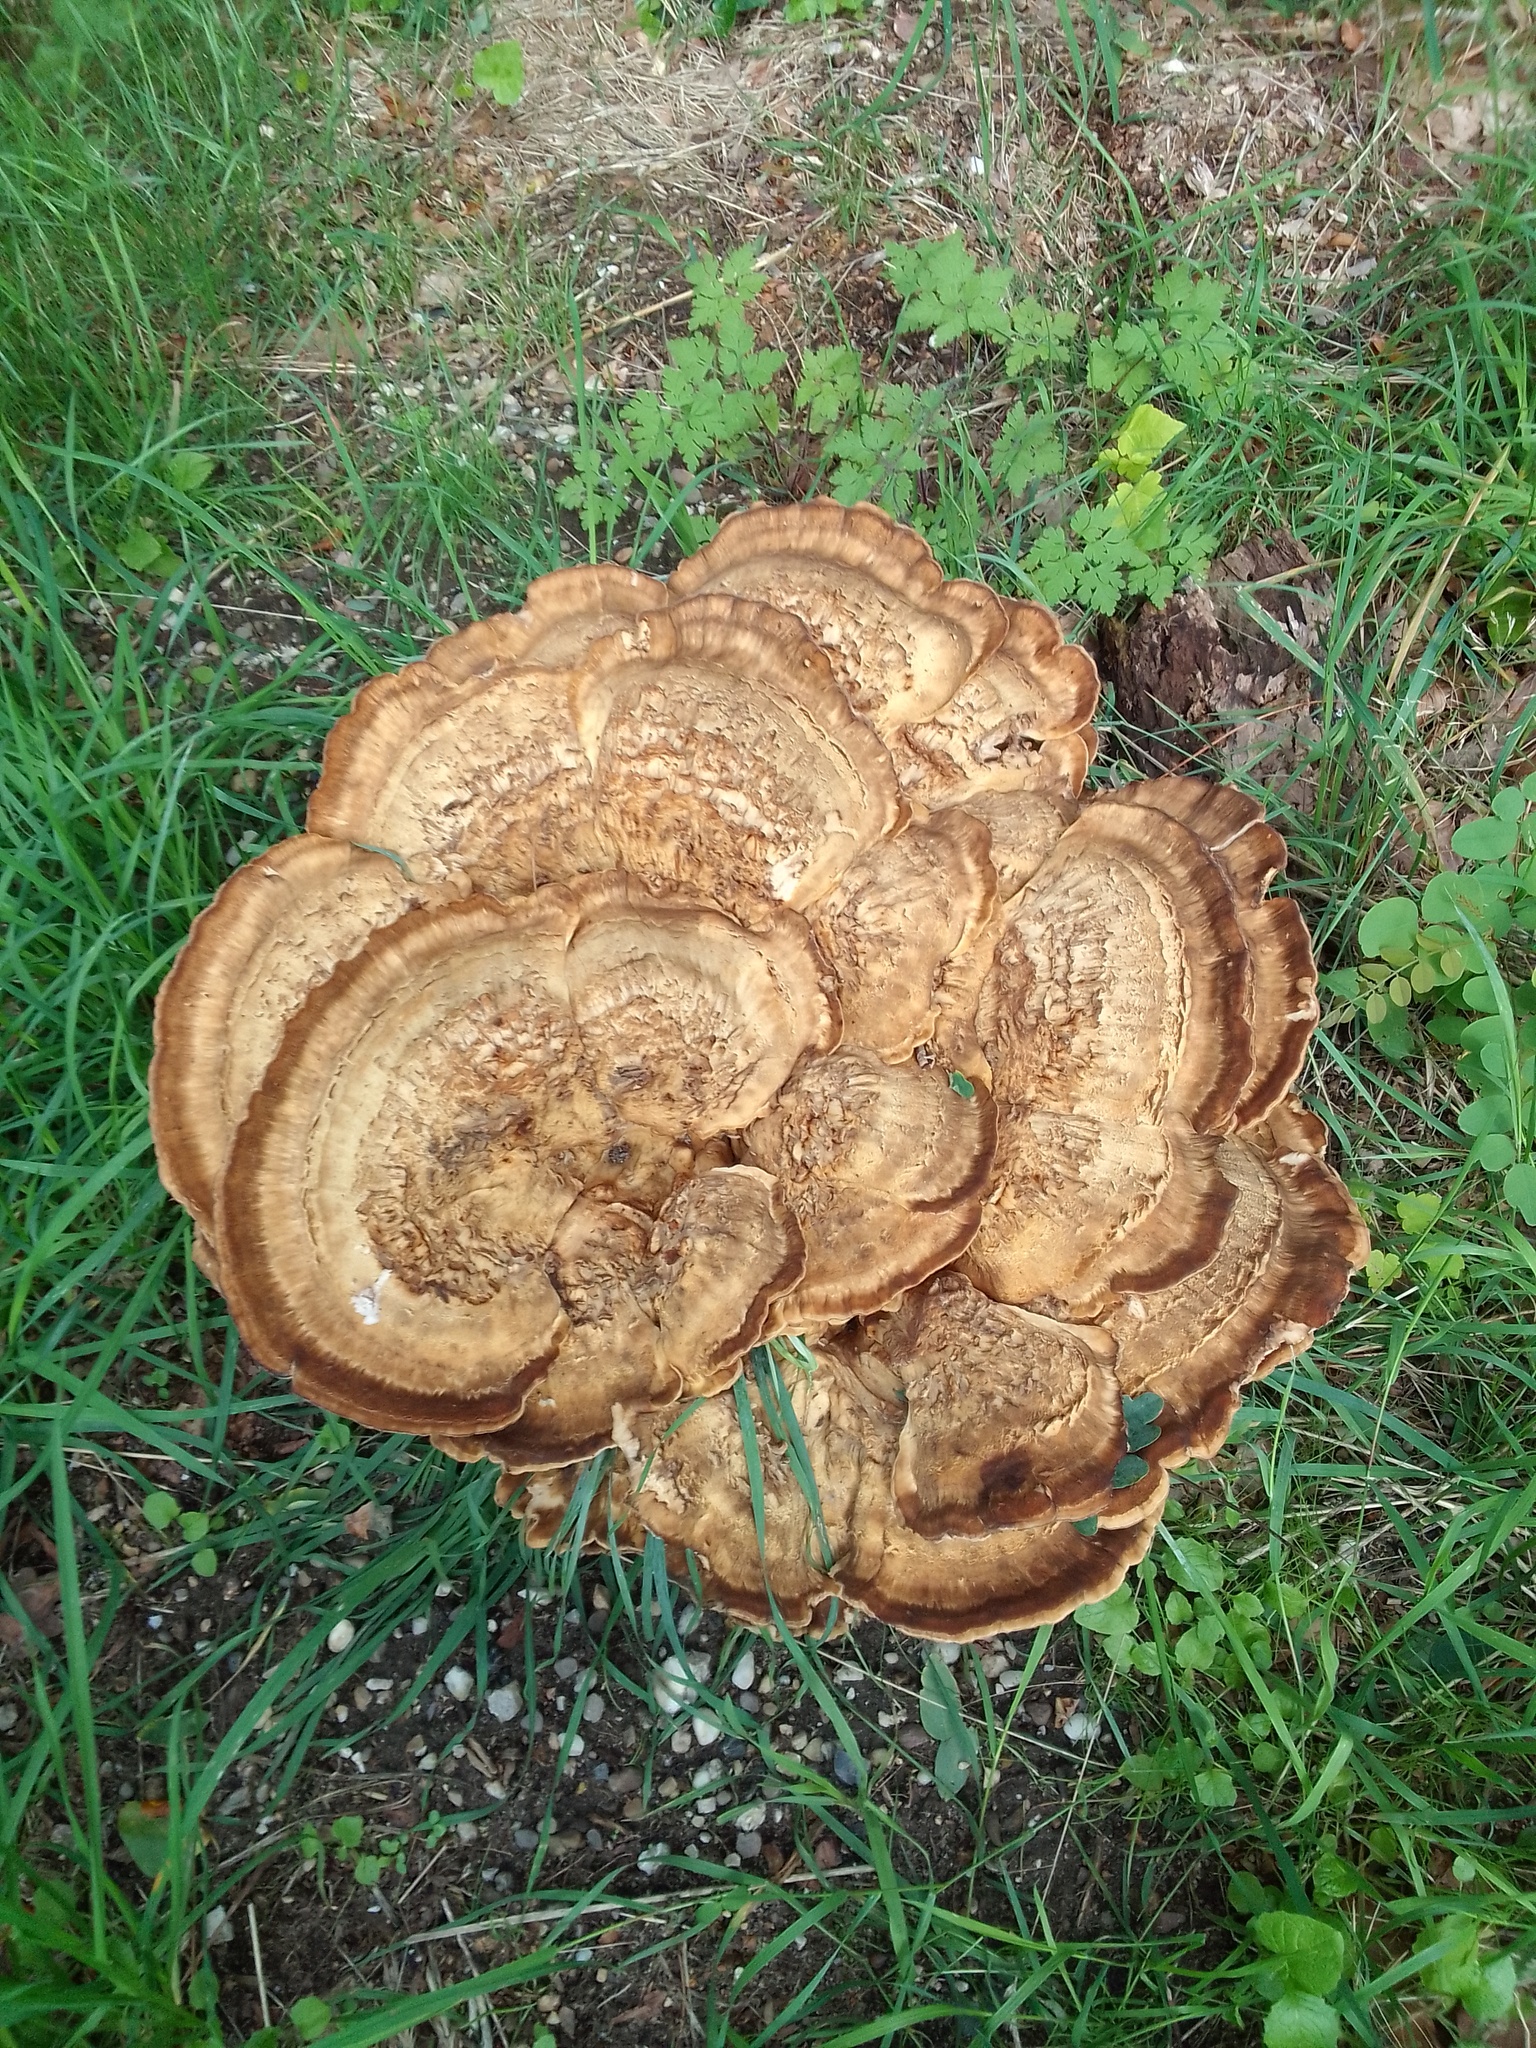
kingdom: Fungi
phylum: Basidiomycota
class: Agaricomycetes
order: Polyporales
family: Meripilaceae
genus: Meripilus
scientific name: Meripilus giganteus
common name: Giant polypore
